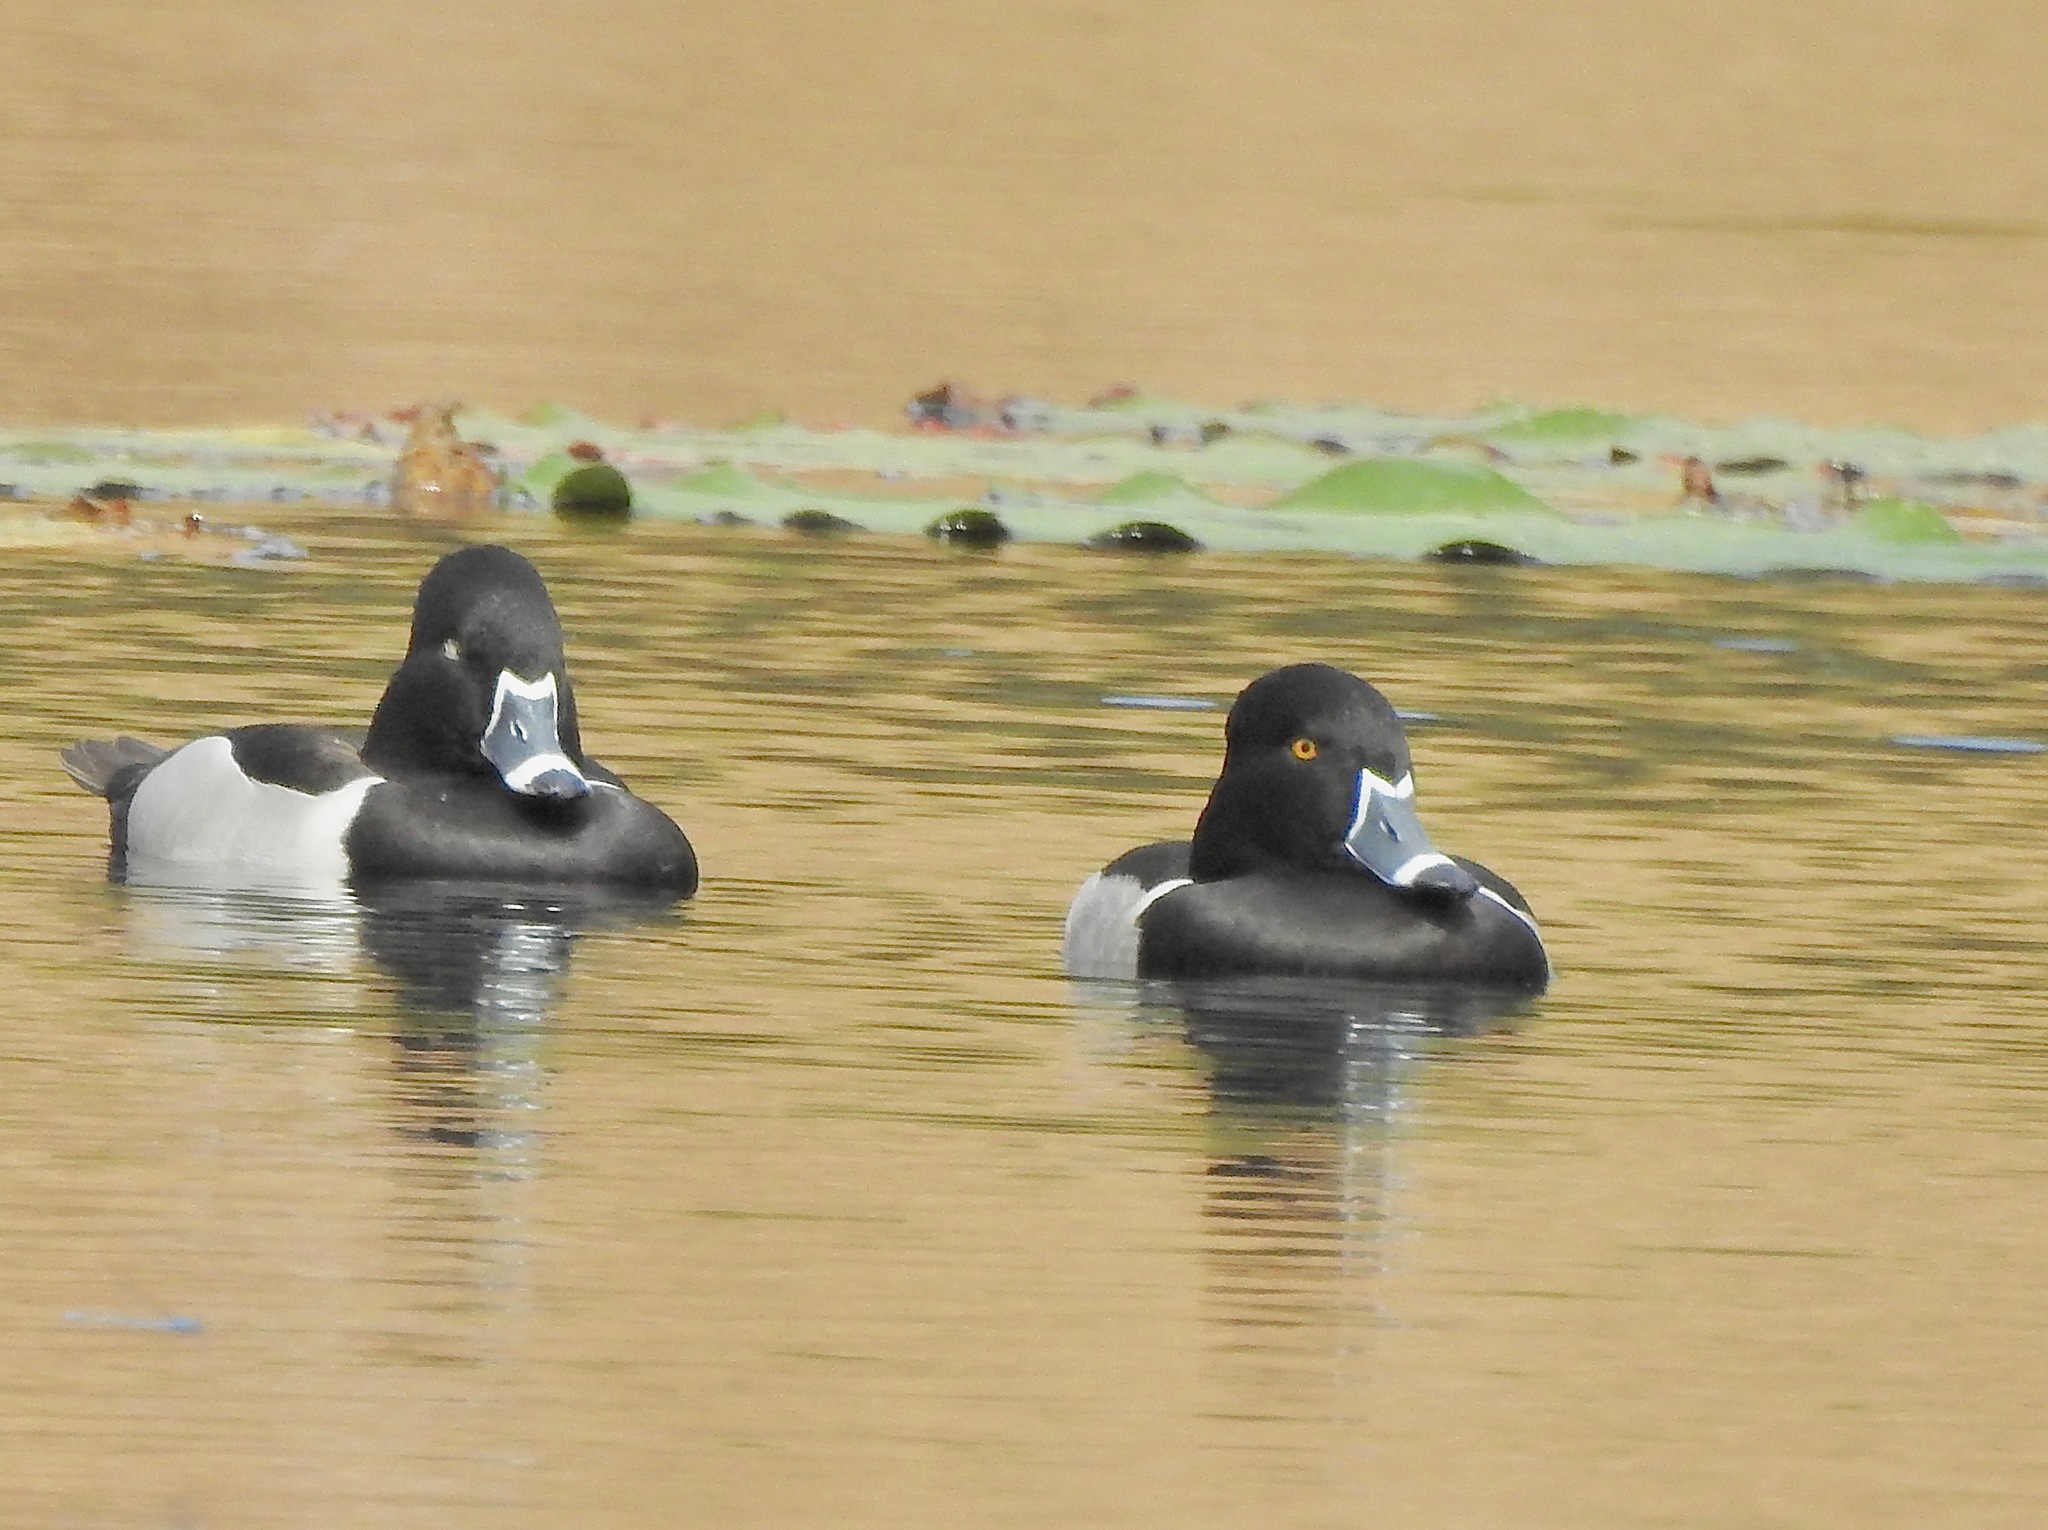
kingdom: Animalia
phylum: Chordata
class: Aves
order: Anseriformes
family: Anatidae
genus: Aythya
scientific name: Aythya collaris
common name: Ring-necked duck
